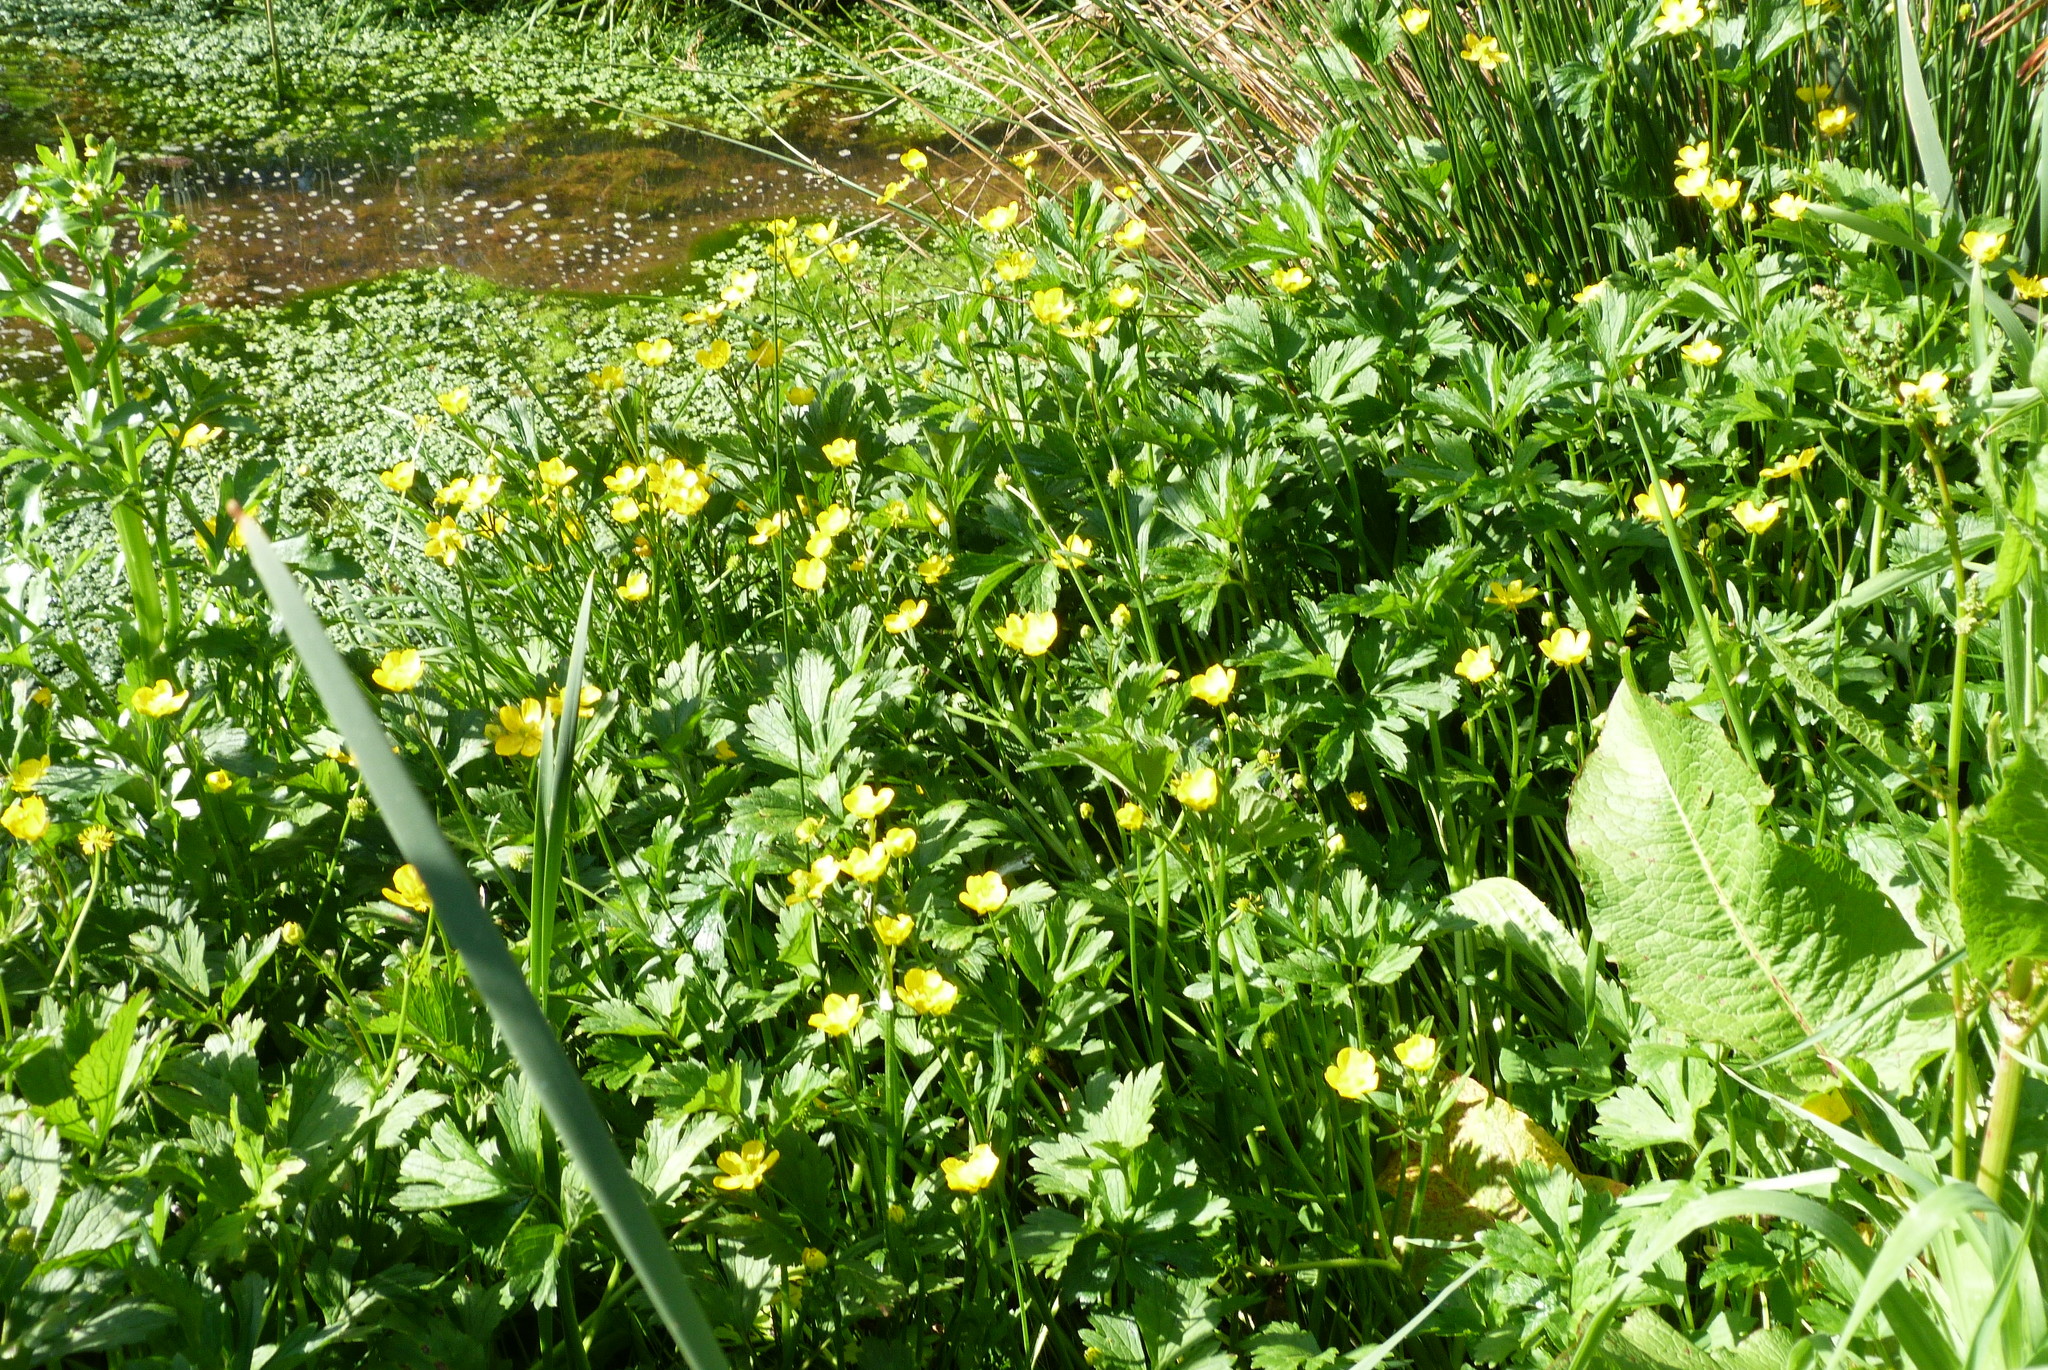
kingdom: Plantae
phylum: Tracheophyta
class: Magnoliopsida
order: Ranunculales
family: Ranunculaceae
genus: Ranunculus
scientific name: Ranunculus repens
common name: Creeping buttercup
